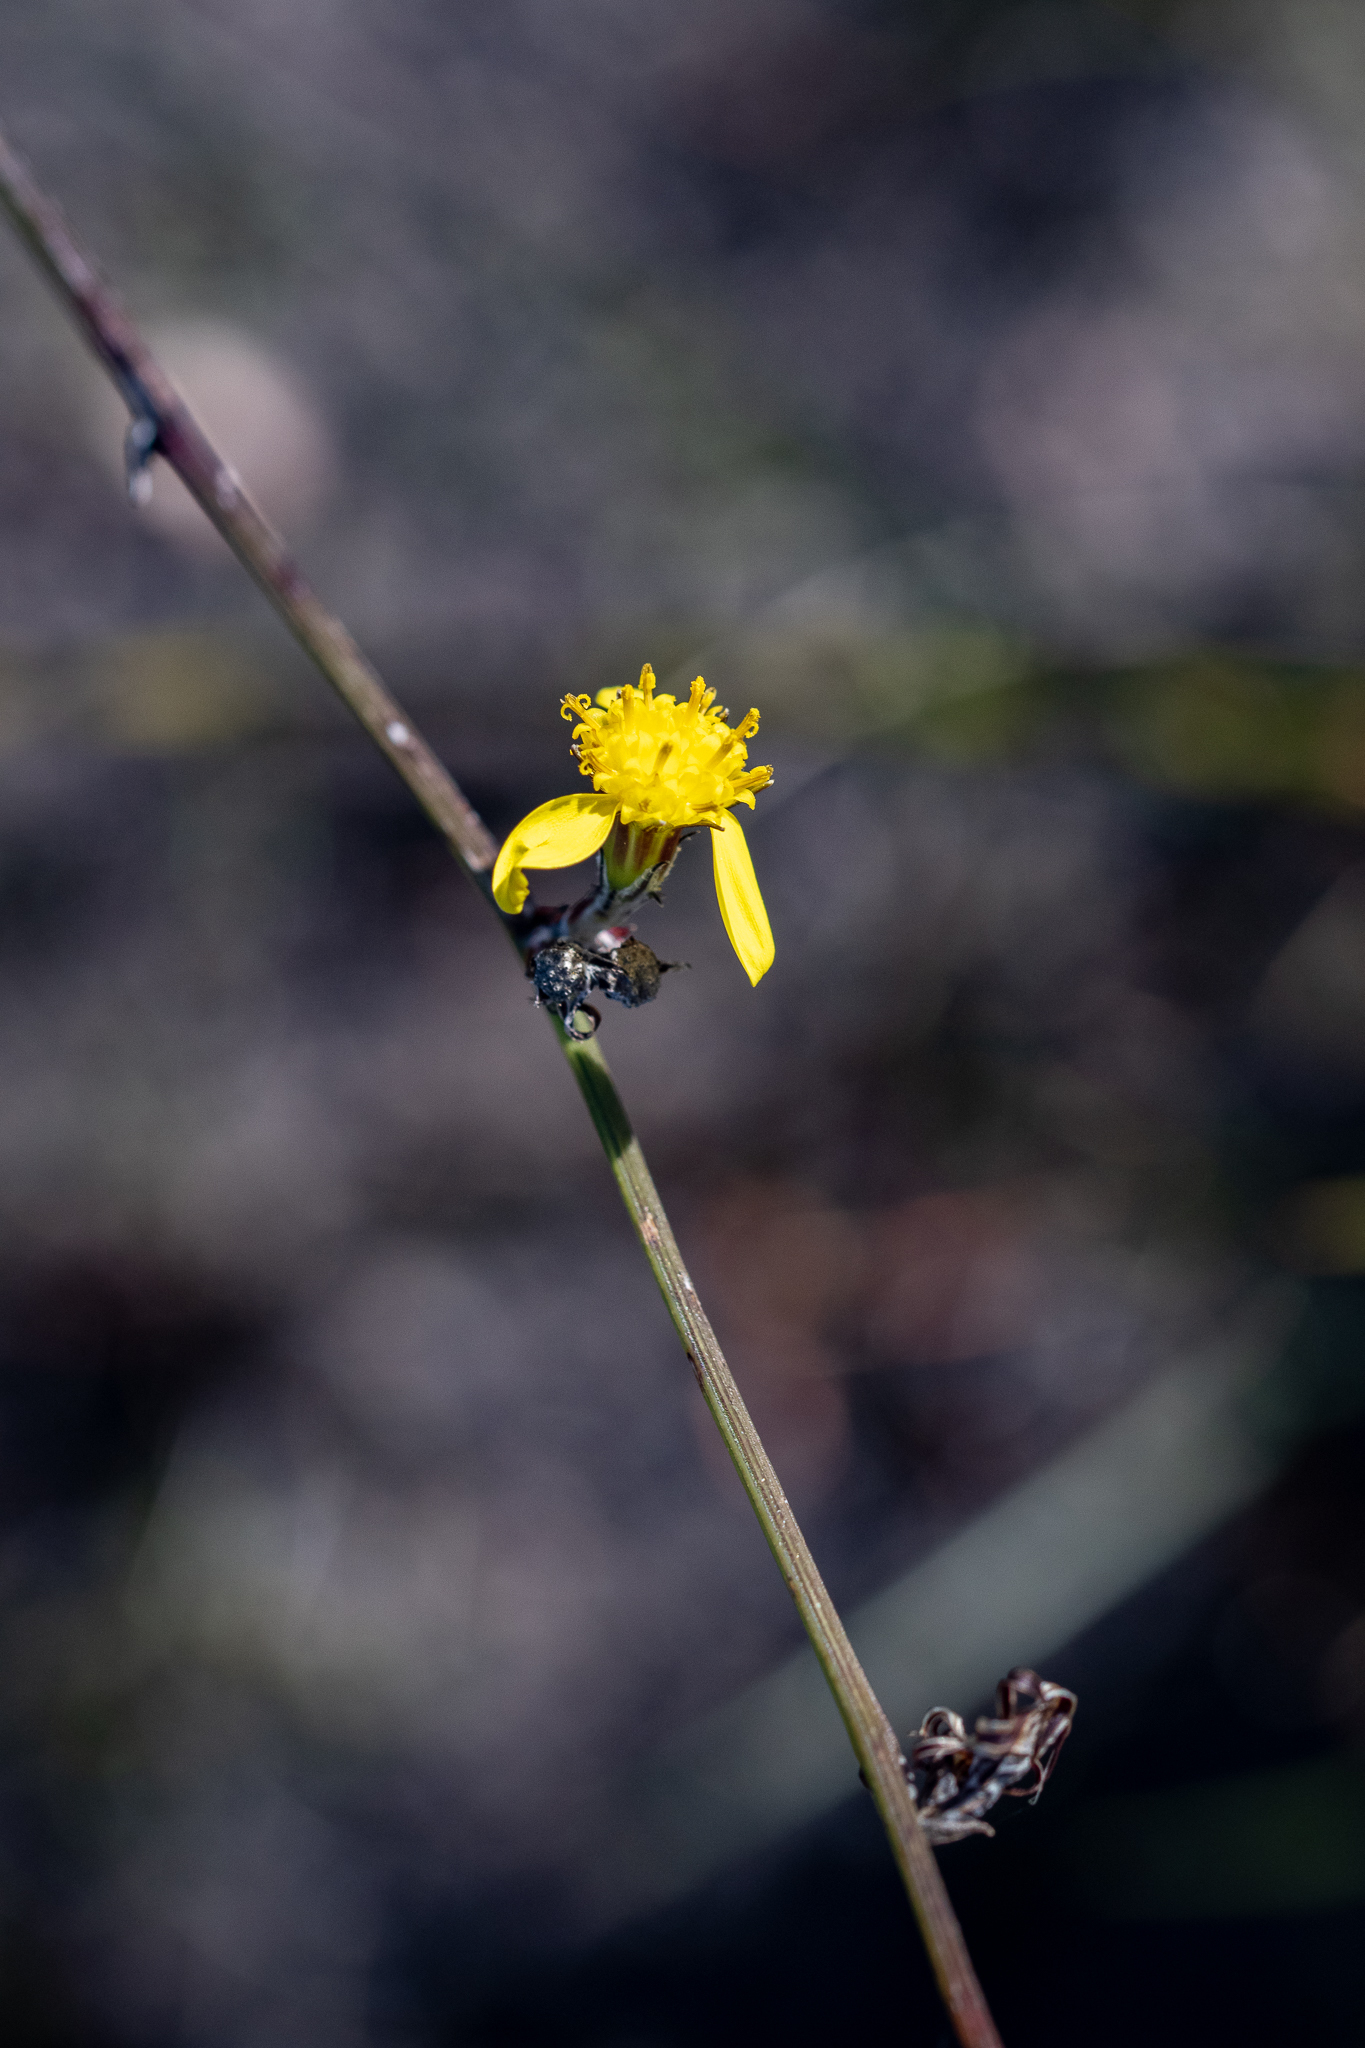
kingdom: Plantae
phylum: Tracheophyta
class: Magnoliopsida
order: Asterales
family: Asteraceae
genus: Senecio
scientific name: Senecio pubigerus
